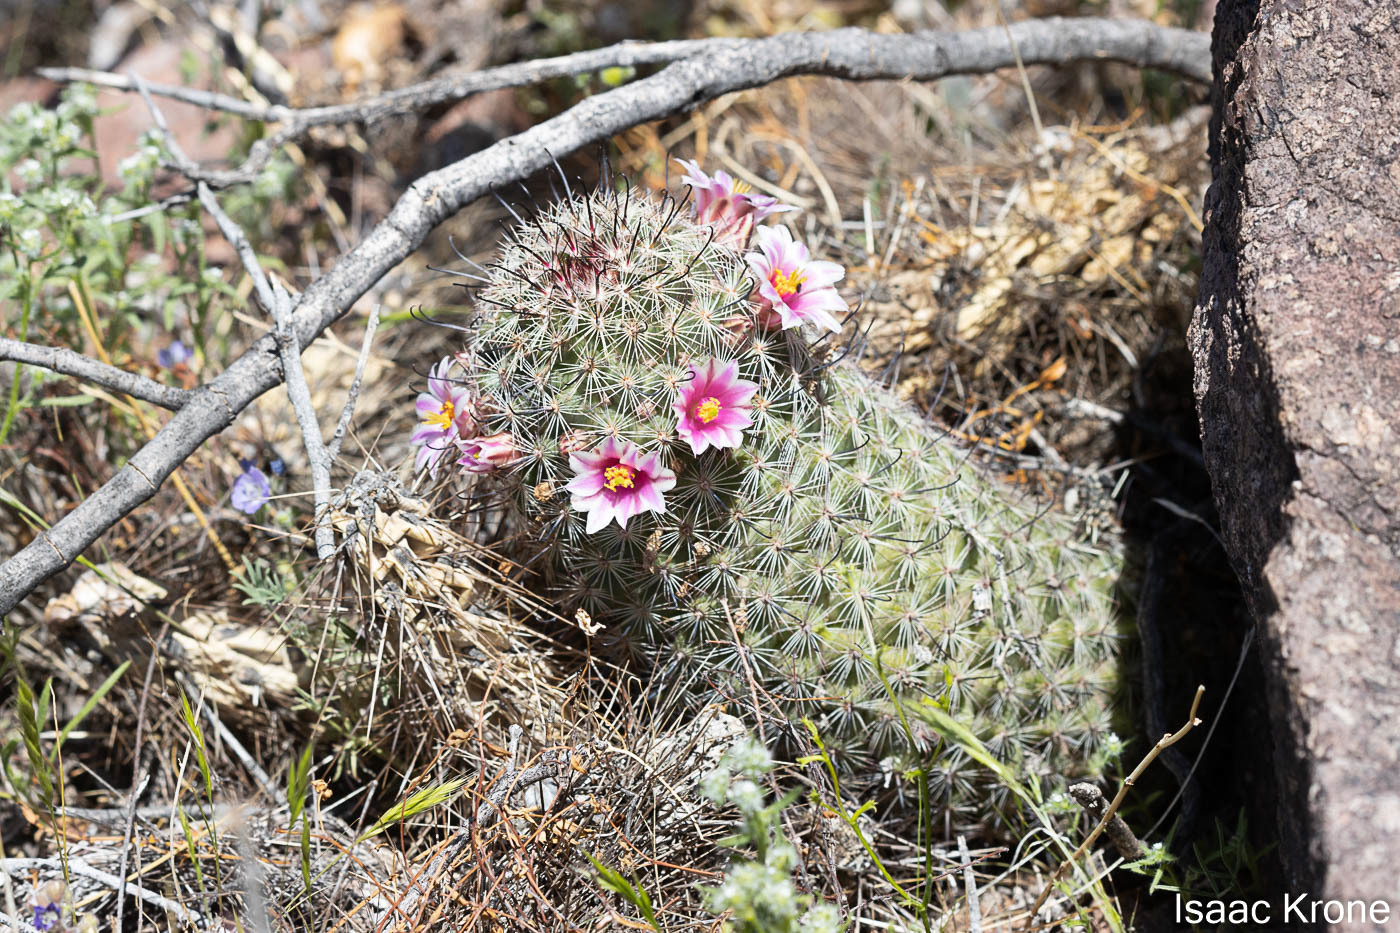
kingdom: Plantae
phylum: Tracheophyta
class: Magnoliopsida
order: Caryophyllales
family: Cactaceae
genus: Cochemiea
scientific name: Cochemiea grahamii
